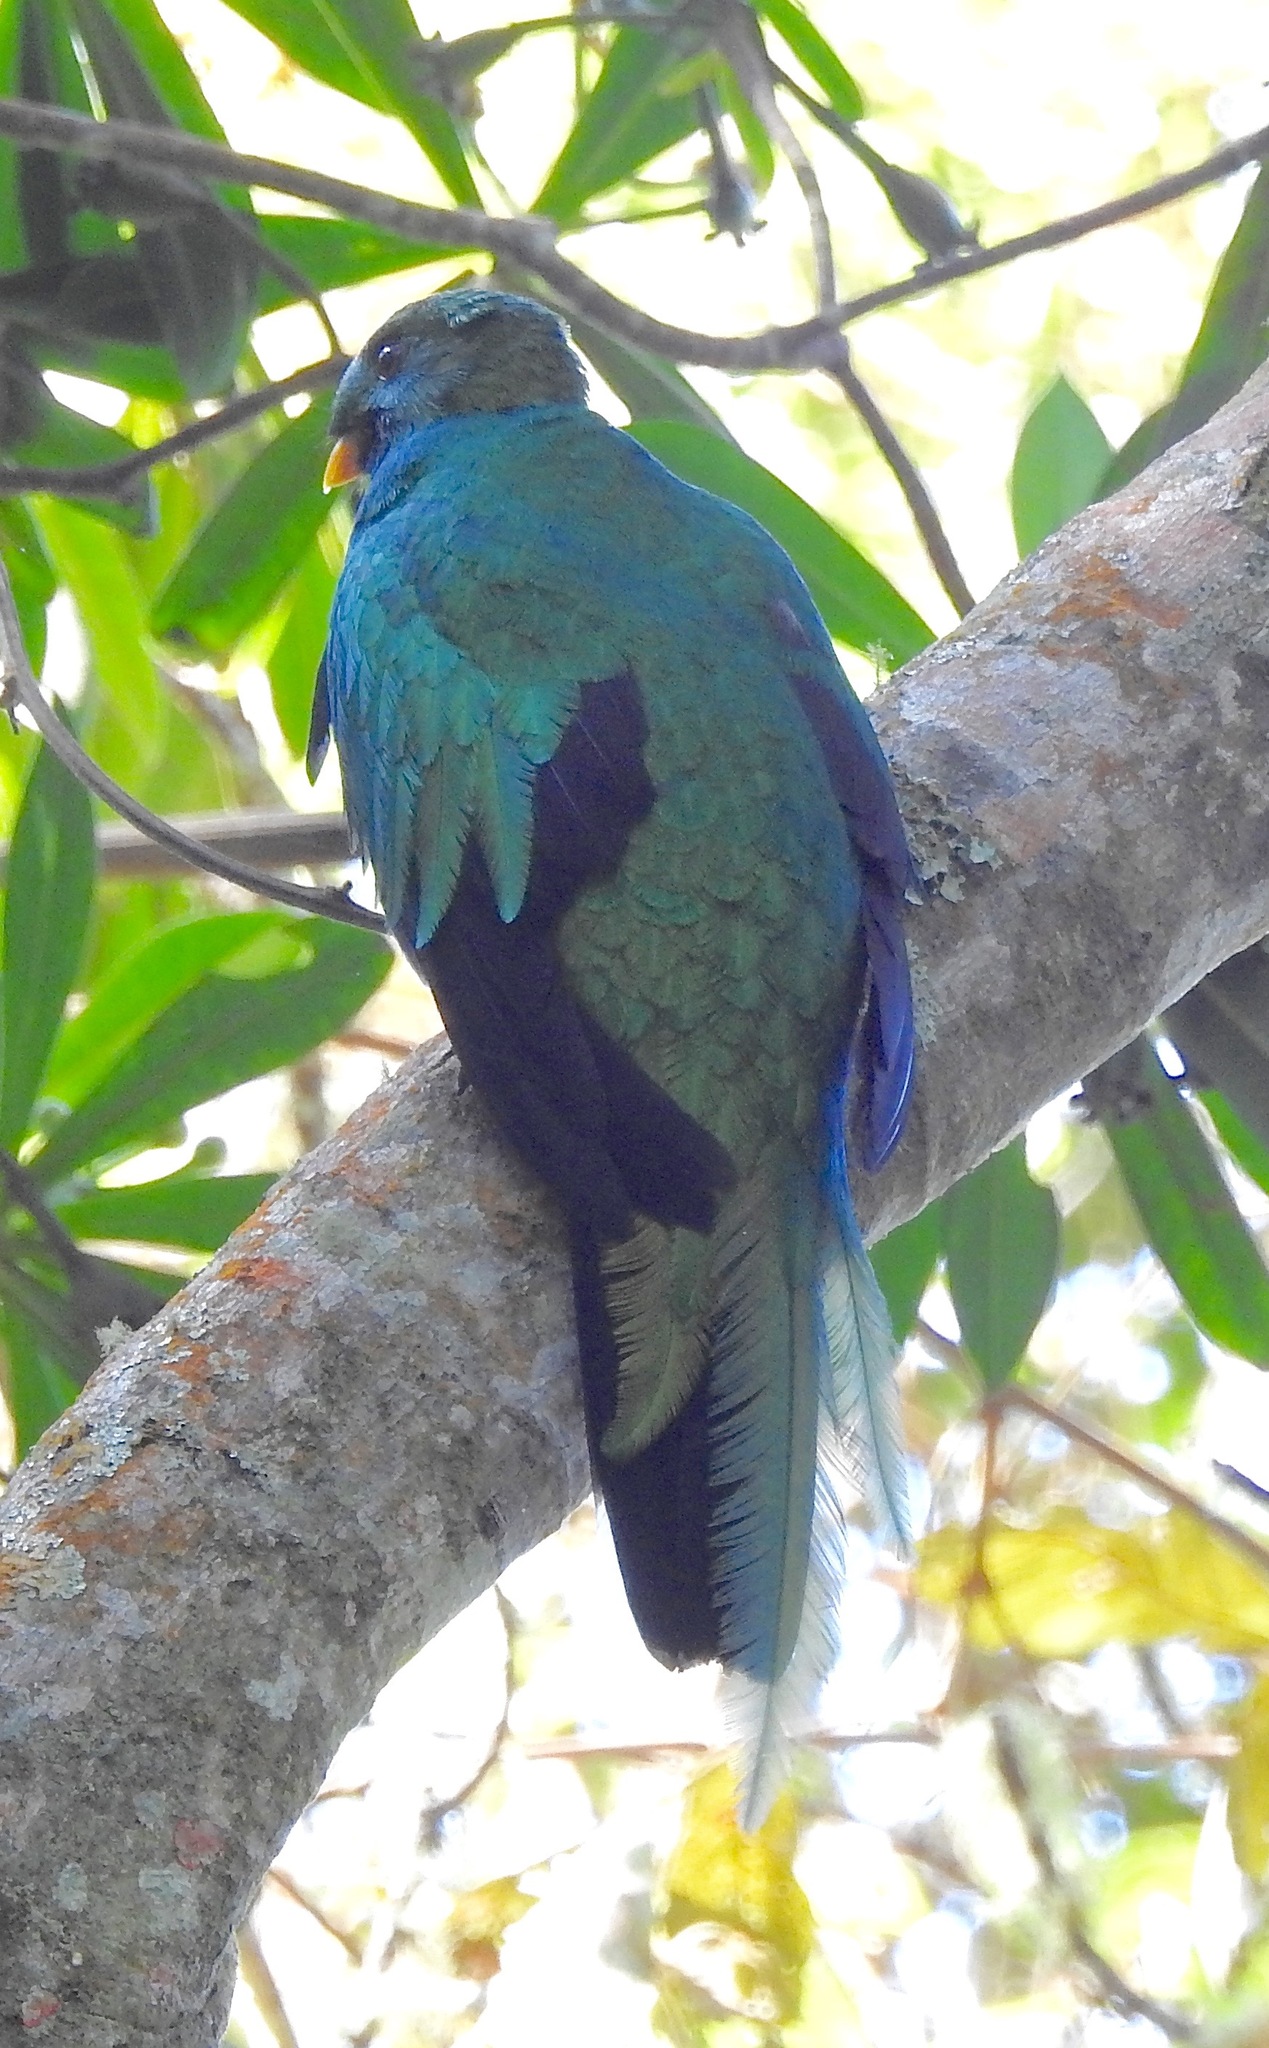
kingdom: Animalia
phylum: Chordata
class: Aves
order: Trogoniformes
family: Trogonidae
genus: Pharomachrus
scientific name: Pharomachrus fulgidus
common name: White-tipped quetzal
